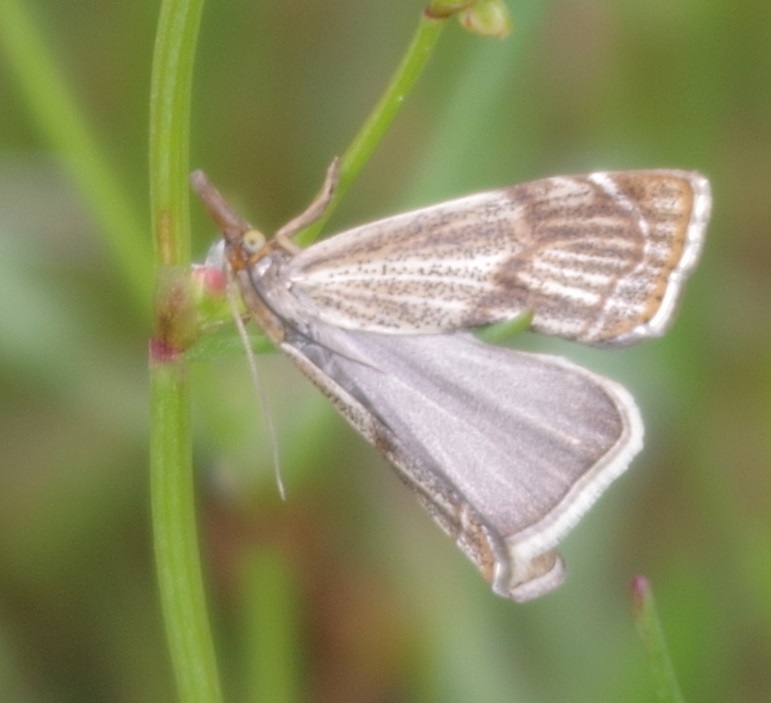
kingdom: Animalia
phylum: Arthropoda
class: Insecta
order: Lepidoptera
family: Crambidae
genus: Thisanotia
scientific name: Thisanotia chrysonuchella
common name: Powdered grass-veneer
